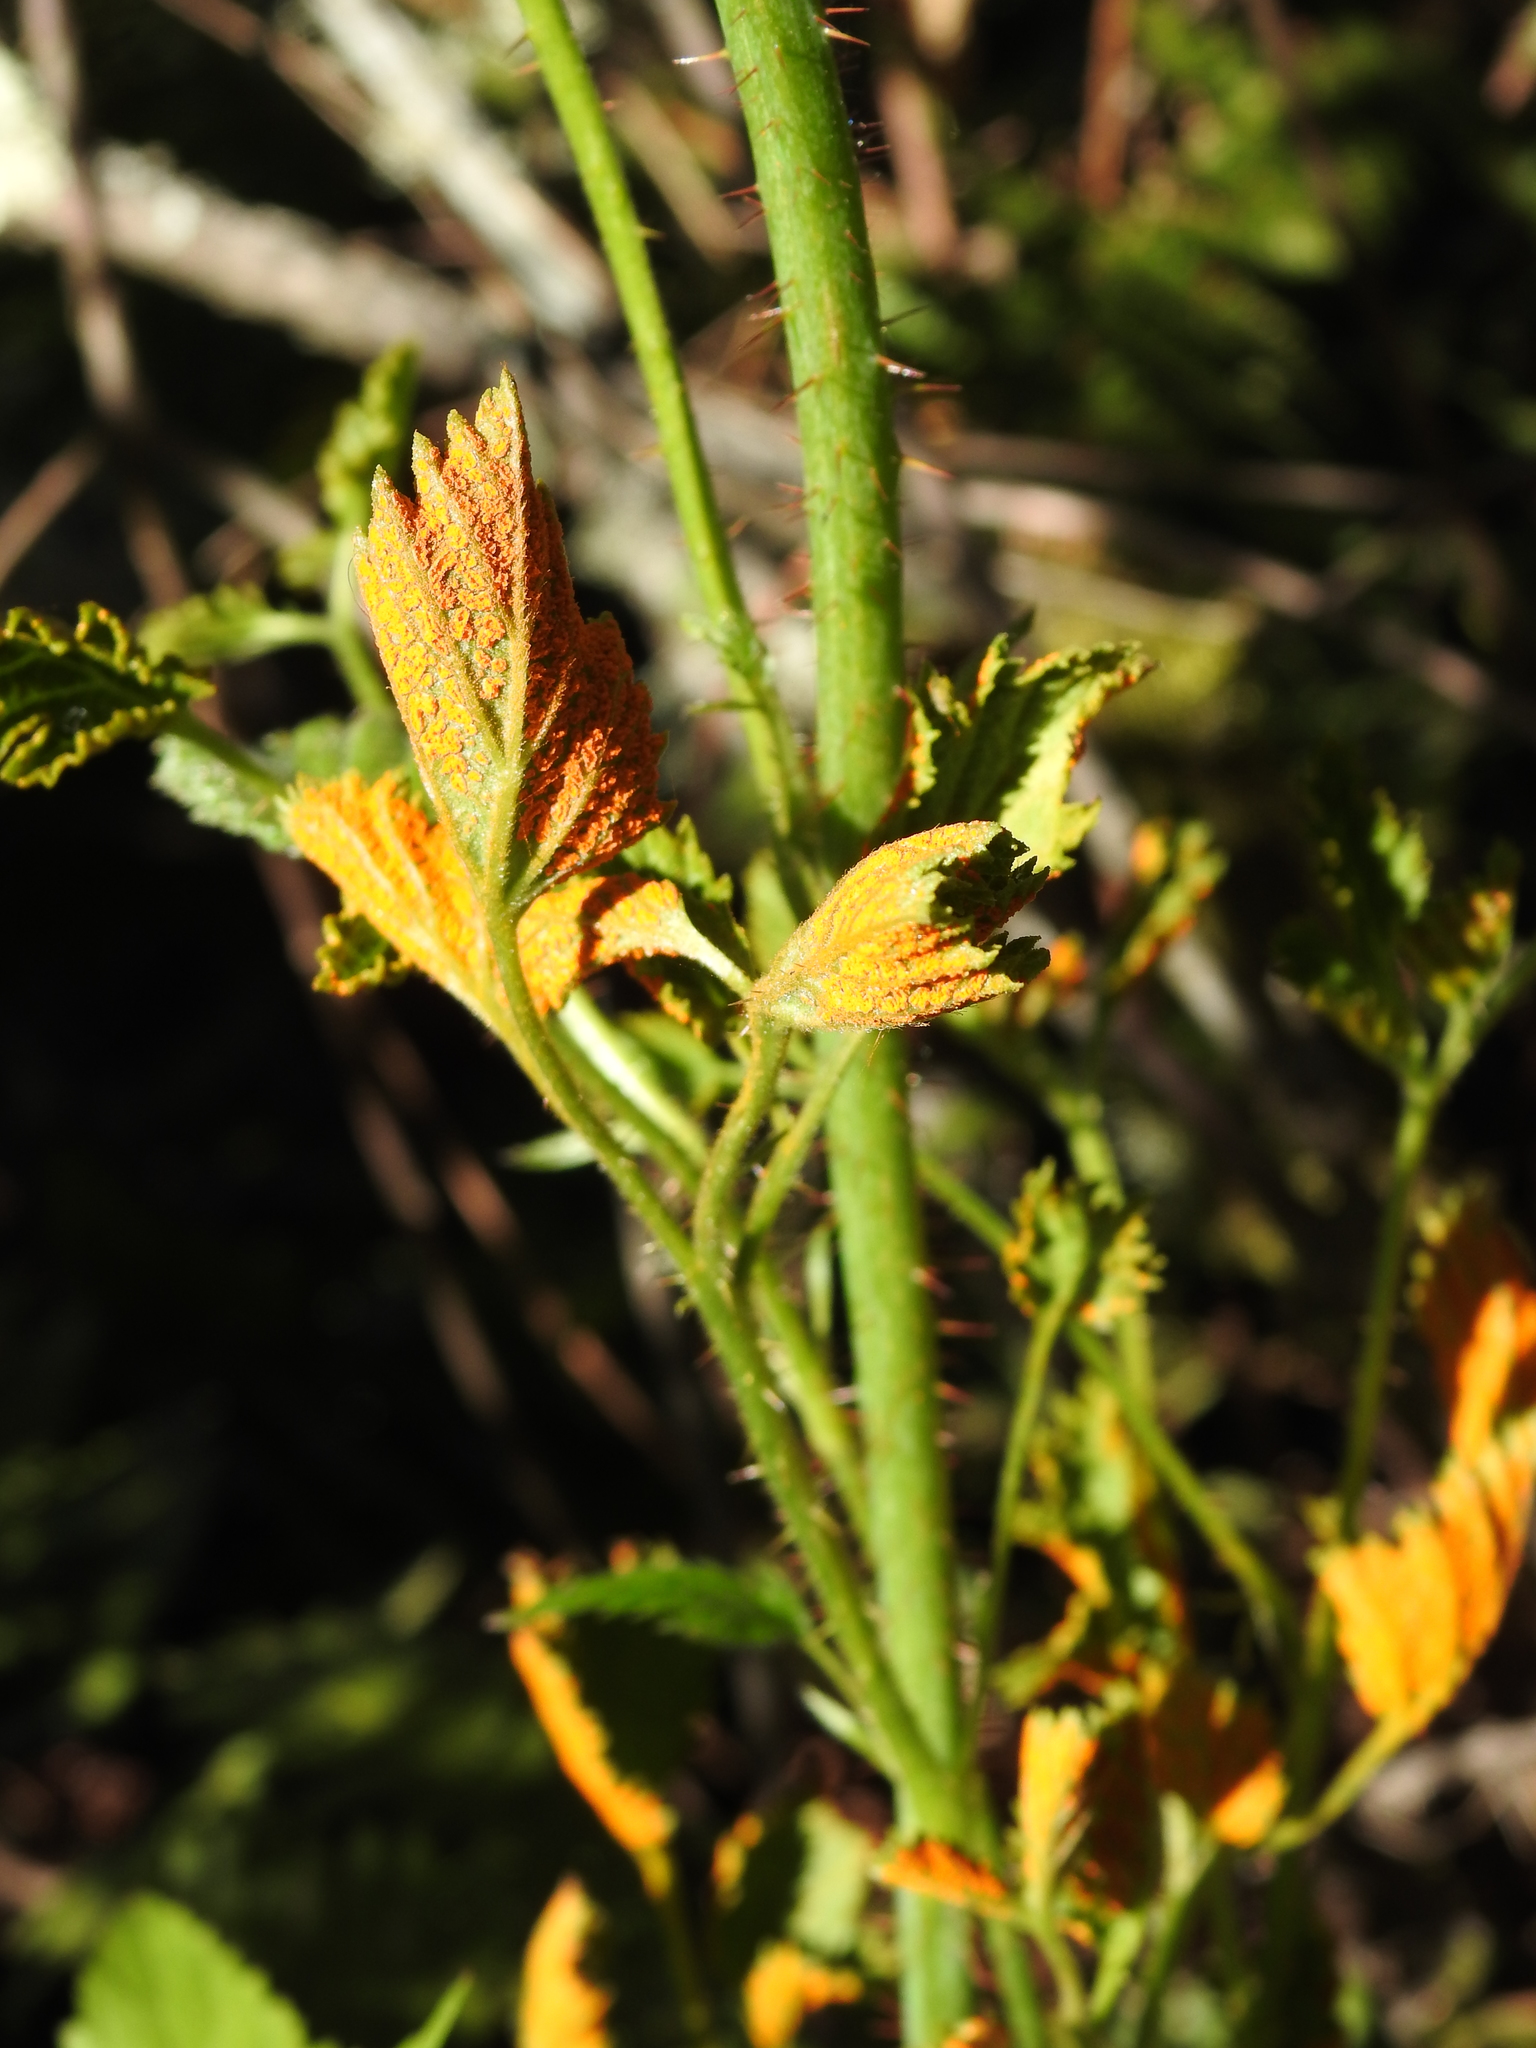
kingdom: Fungi
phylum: Basidiomycota
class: Pucciniomycetes
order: Pucciniales
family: Phragmidiaceae
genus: Arthuriomyces
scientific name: Arthuriomyces peckianus
